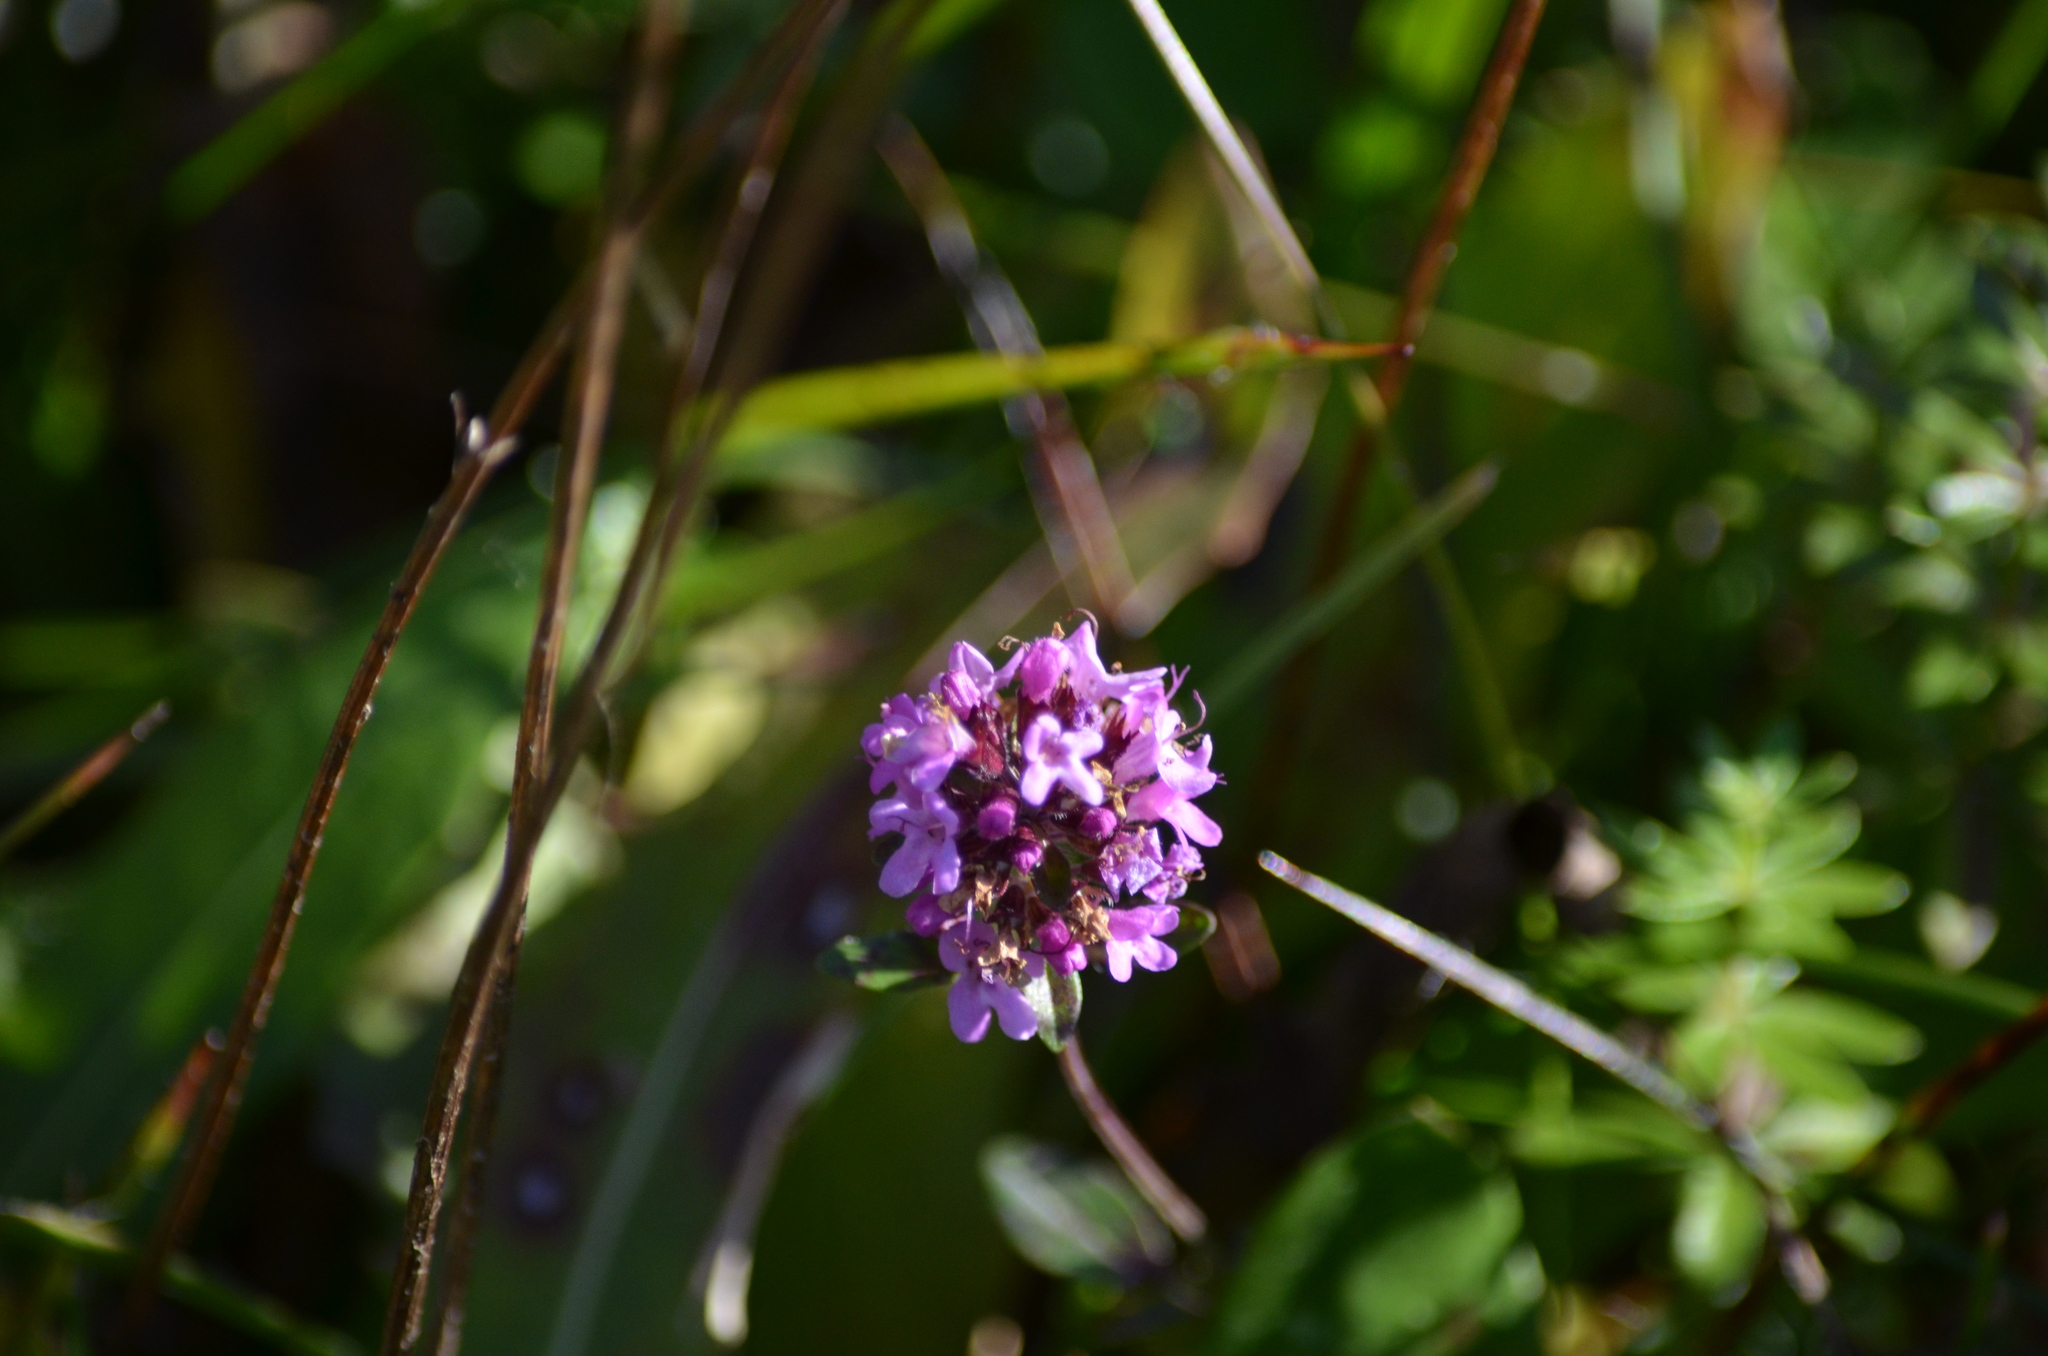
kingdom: Plantae
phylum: Tracheophyta
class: Magnoliopsida
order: Lamiales
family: Lamiaceae
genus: Thymus
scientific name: Thymus pulegioides
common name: Large thyme
